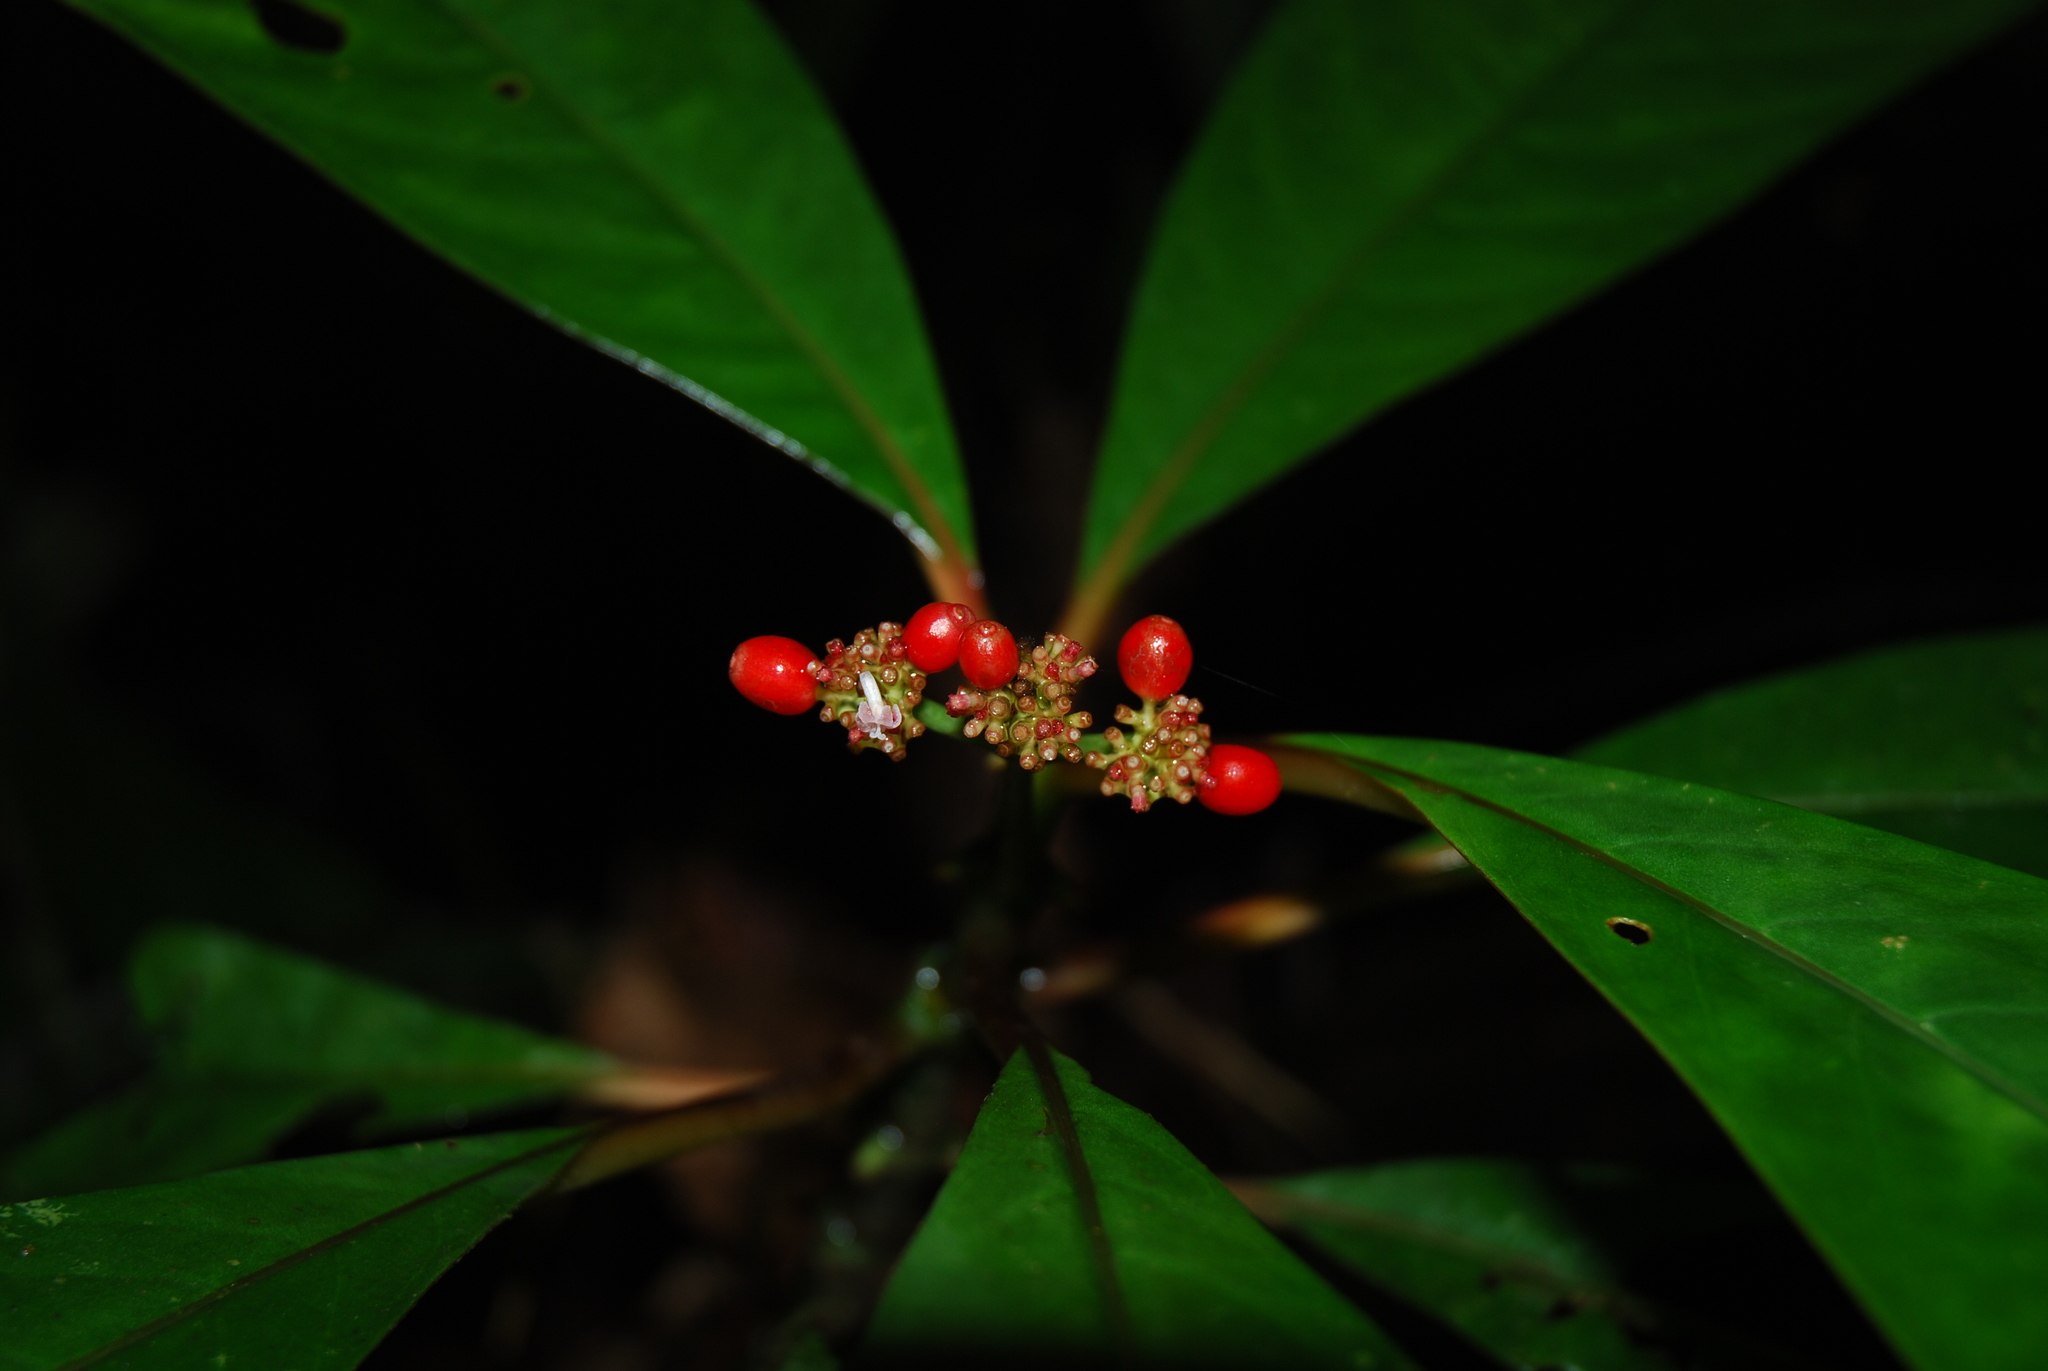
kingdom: Plantae
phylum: Tracheophyta
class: Magnoliopsida
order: Gentianales
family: Rubiaceae
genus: Notopleura
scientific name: Notopleura uliginosa
